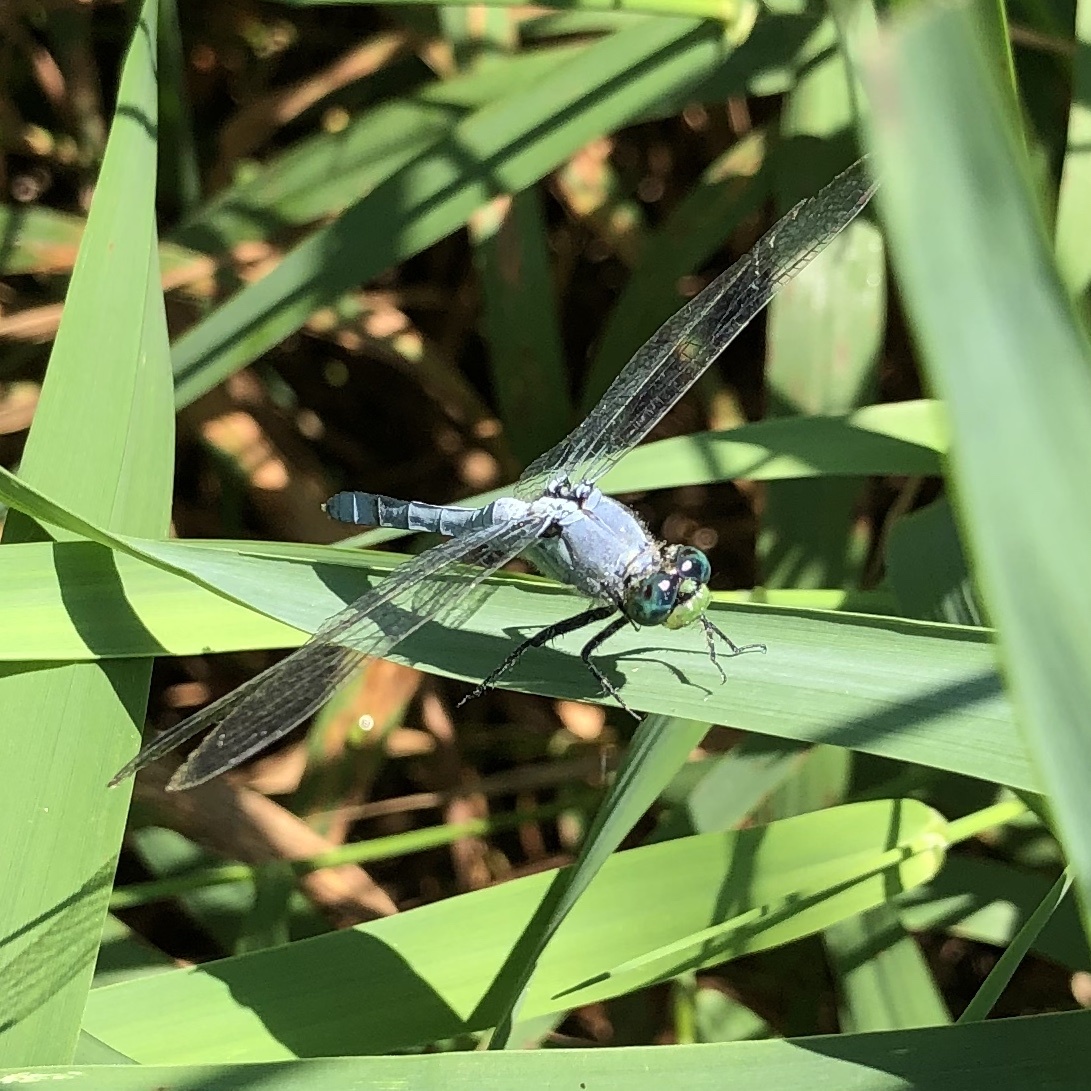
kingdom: Animalia
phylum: Arthropoda
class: Insecta
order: Odonata
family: Libellulidae
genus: Erythemis
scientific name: Erythemis simplicicollis
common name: Eastern pondhawk
